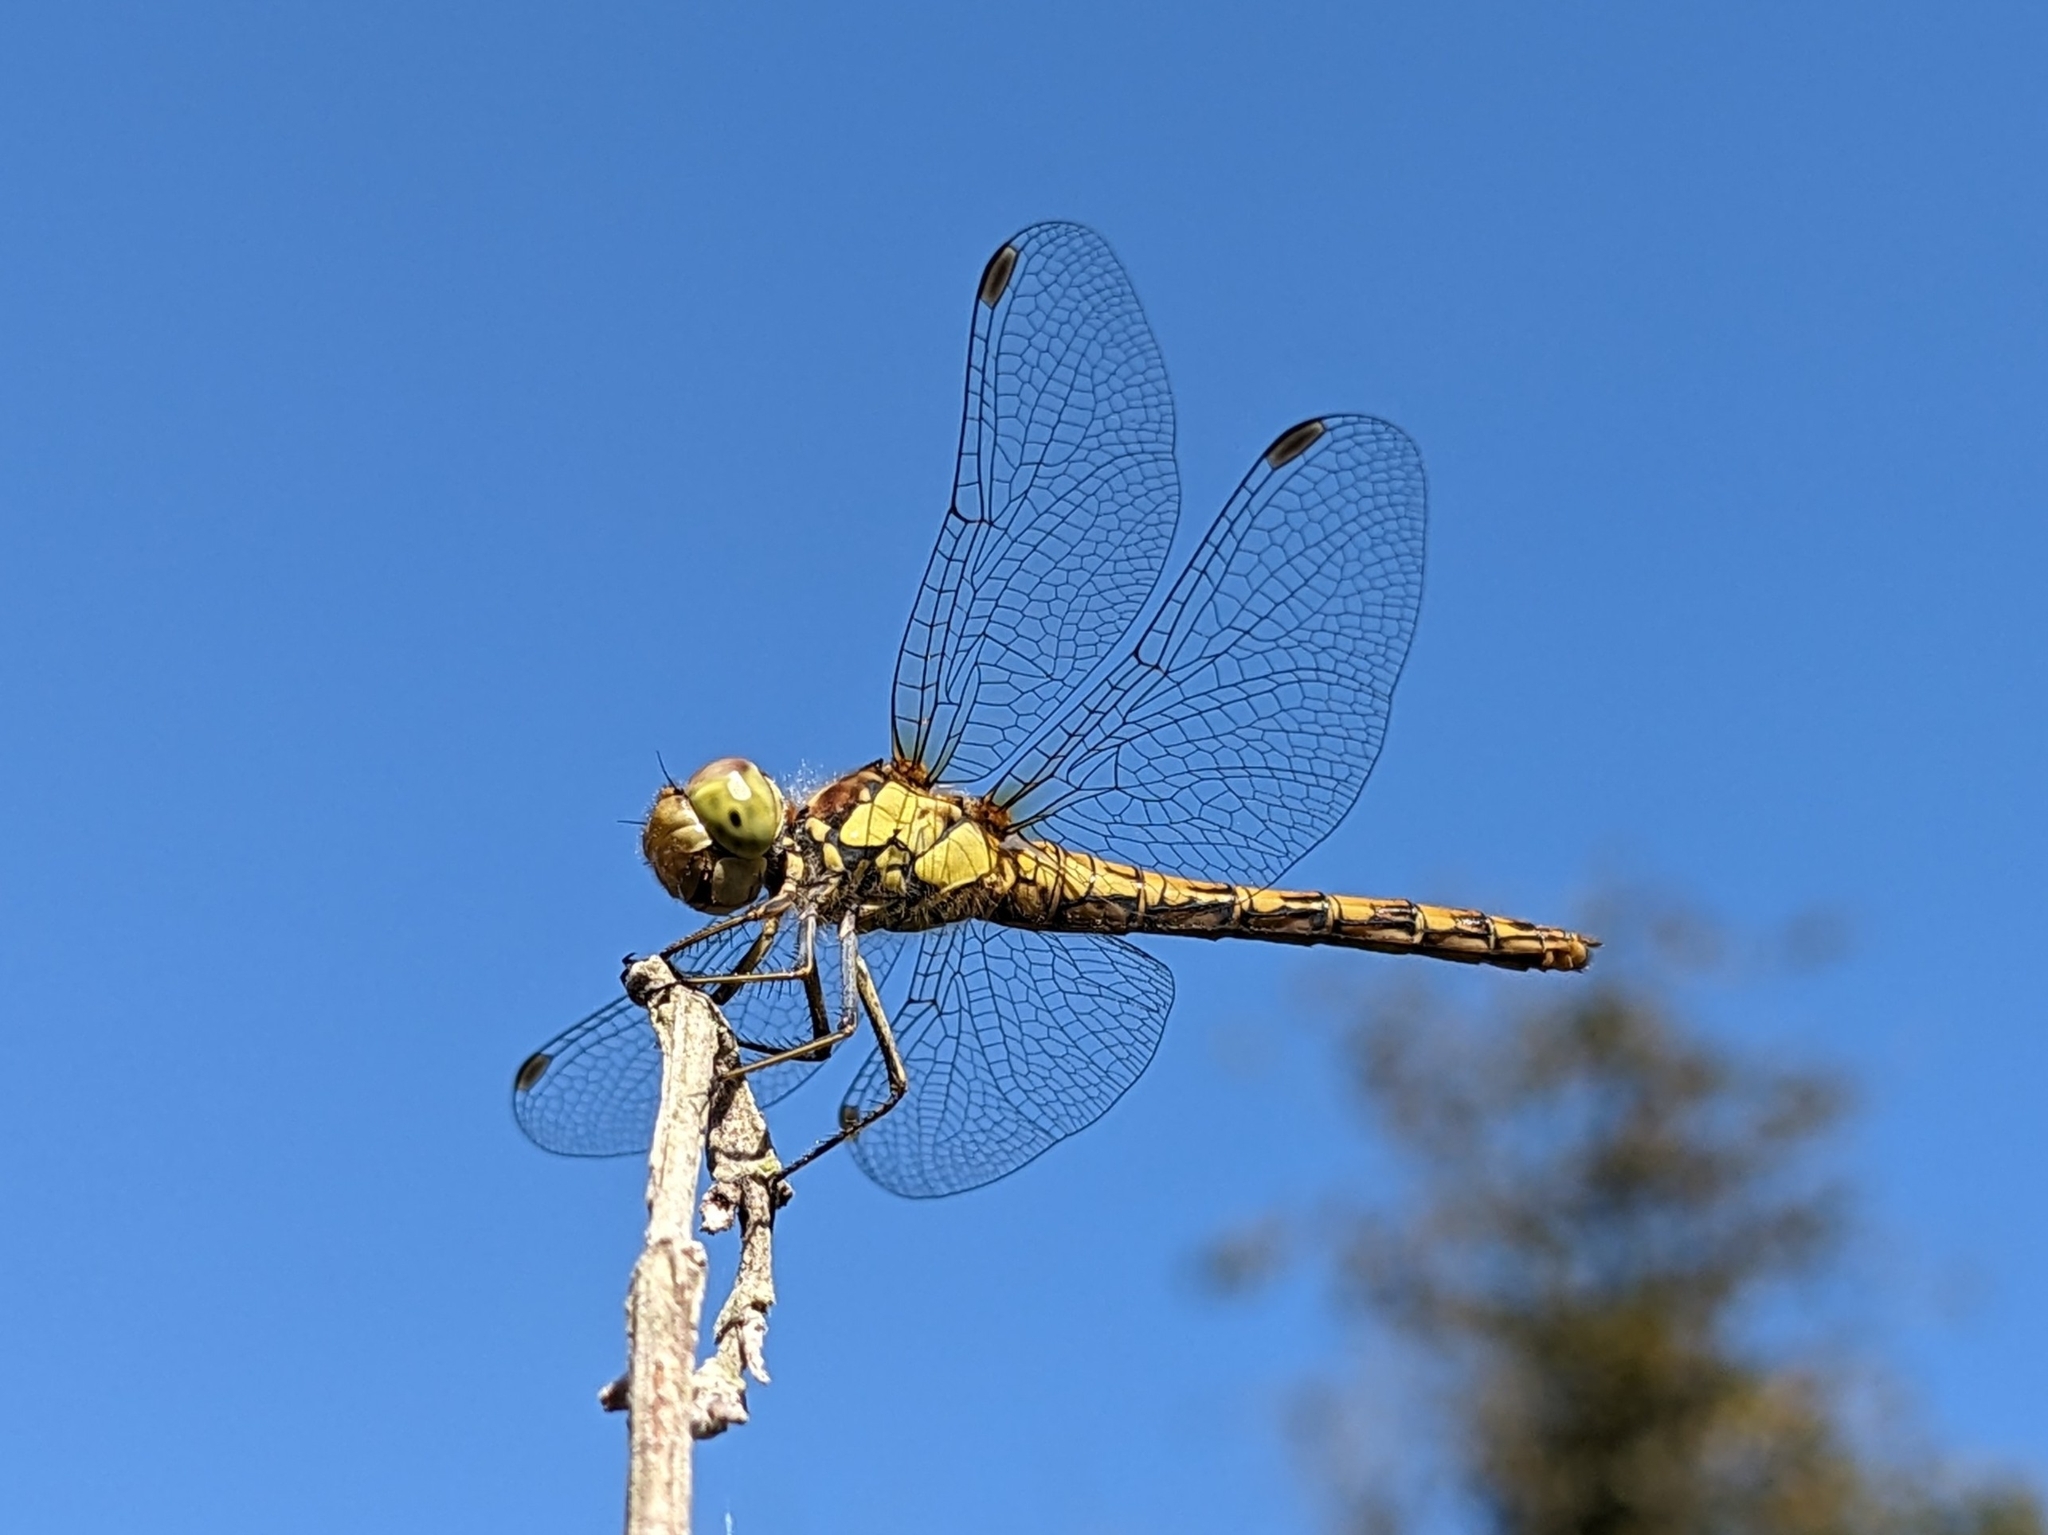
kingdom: Animalia
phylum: Arthropoda
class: Insecta
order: Odonata
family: Libellulidae
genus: Sympetrum
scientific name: Sympetrum striolatum
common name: Common darter
